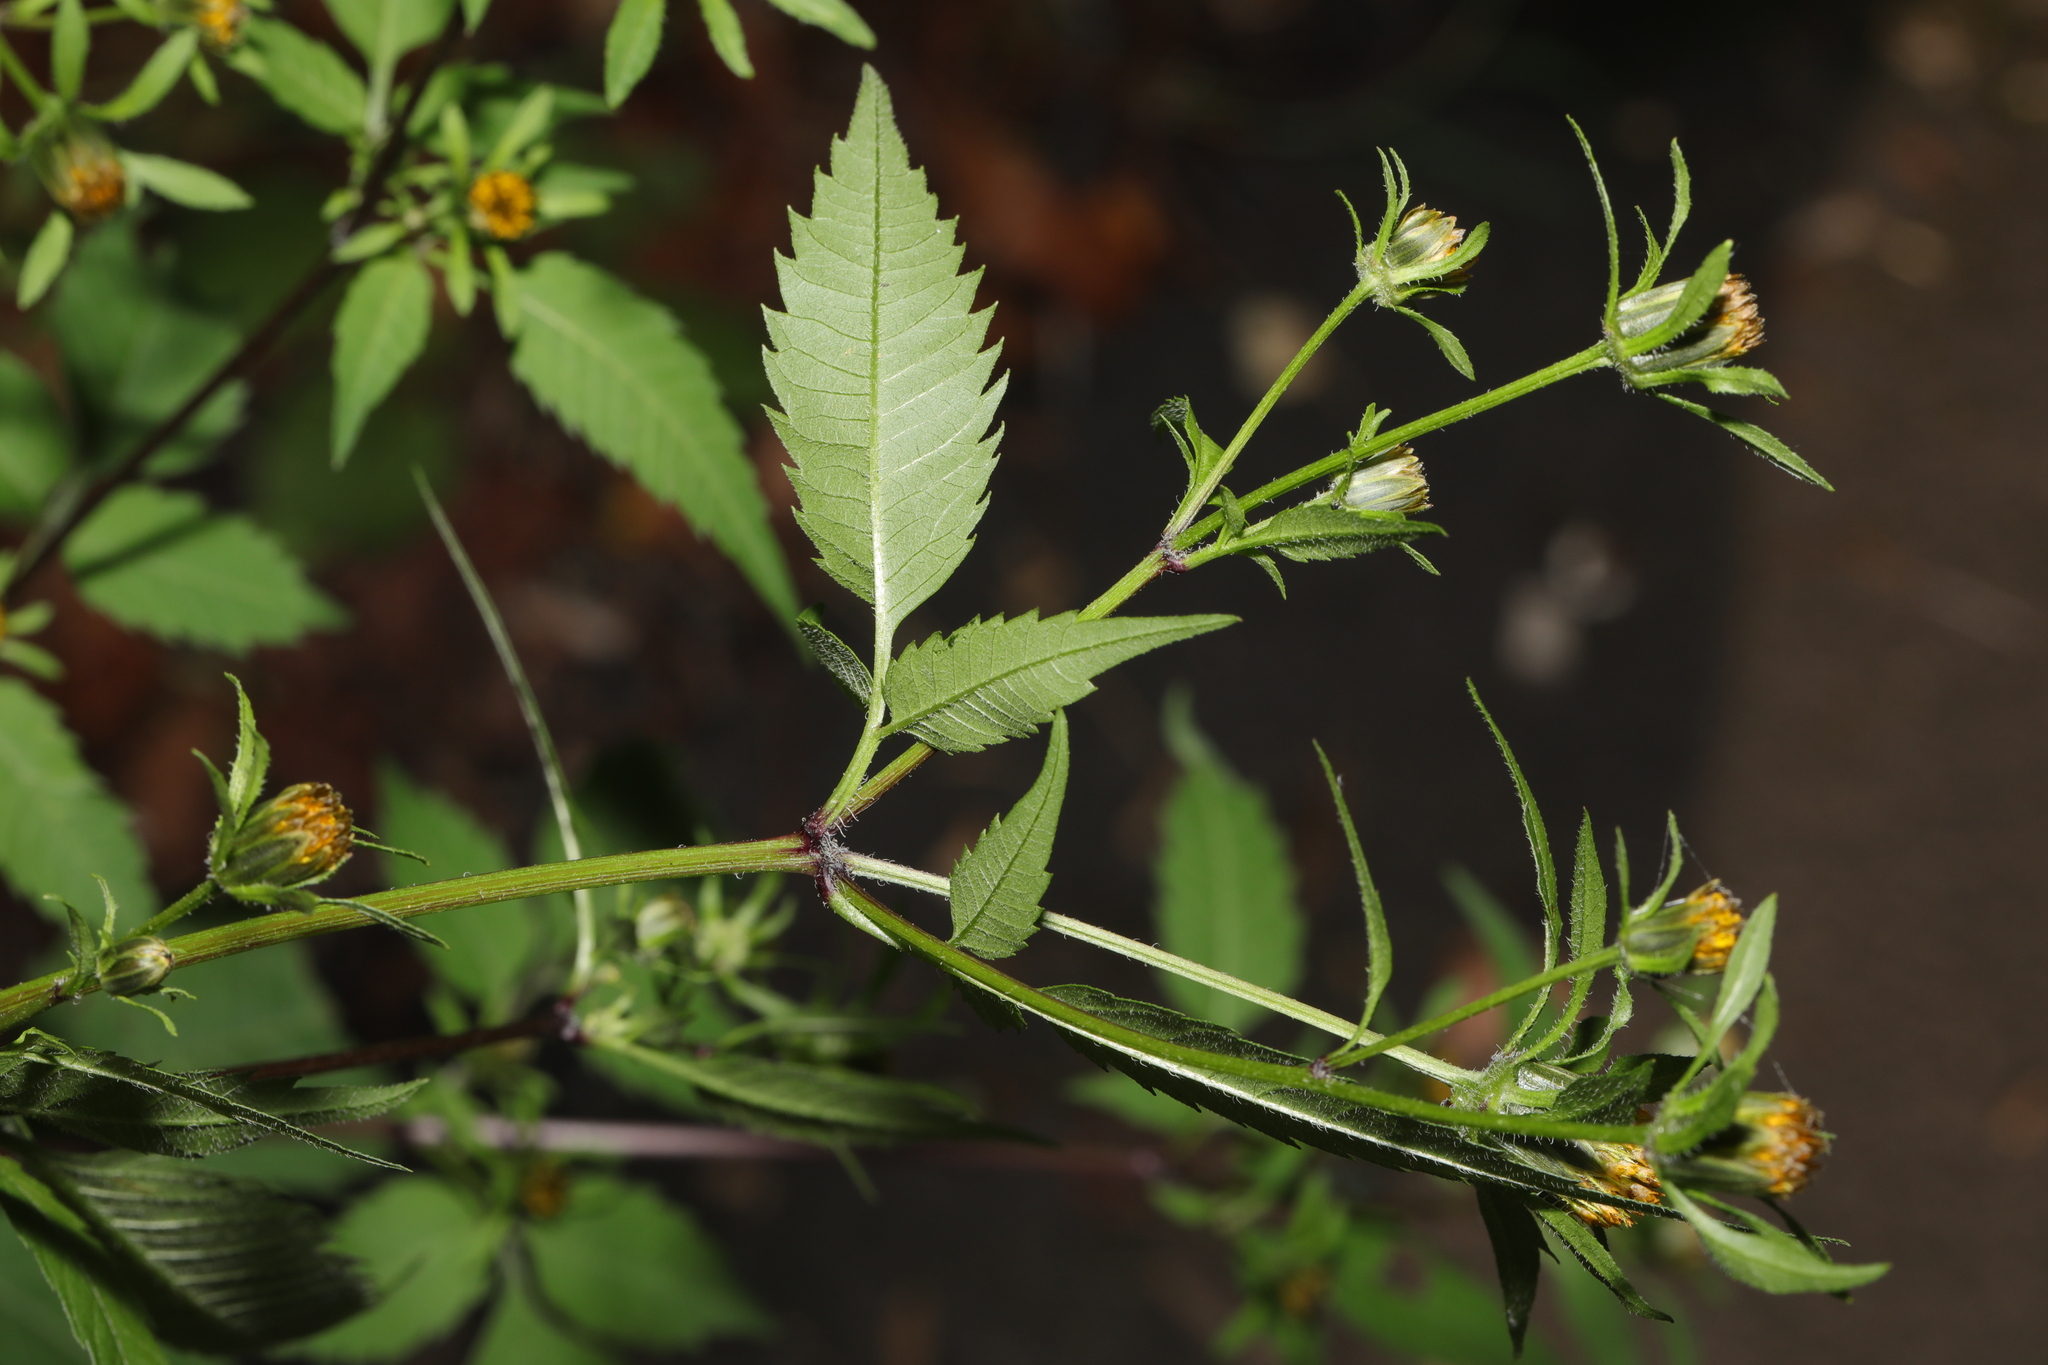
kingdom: Plantae
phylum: Tracheophyta
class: Magnoliopsida
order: Asterales
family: Asteraceae
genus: Bidens
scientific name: Bidens tripartita
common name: Trifid bur-marigold
